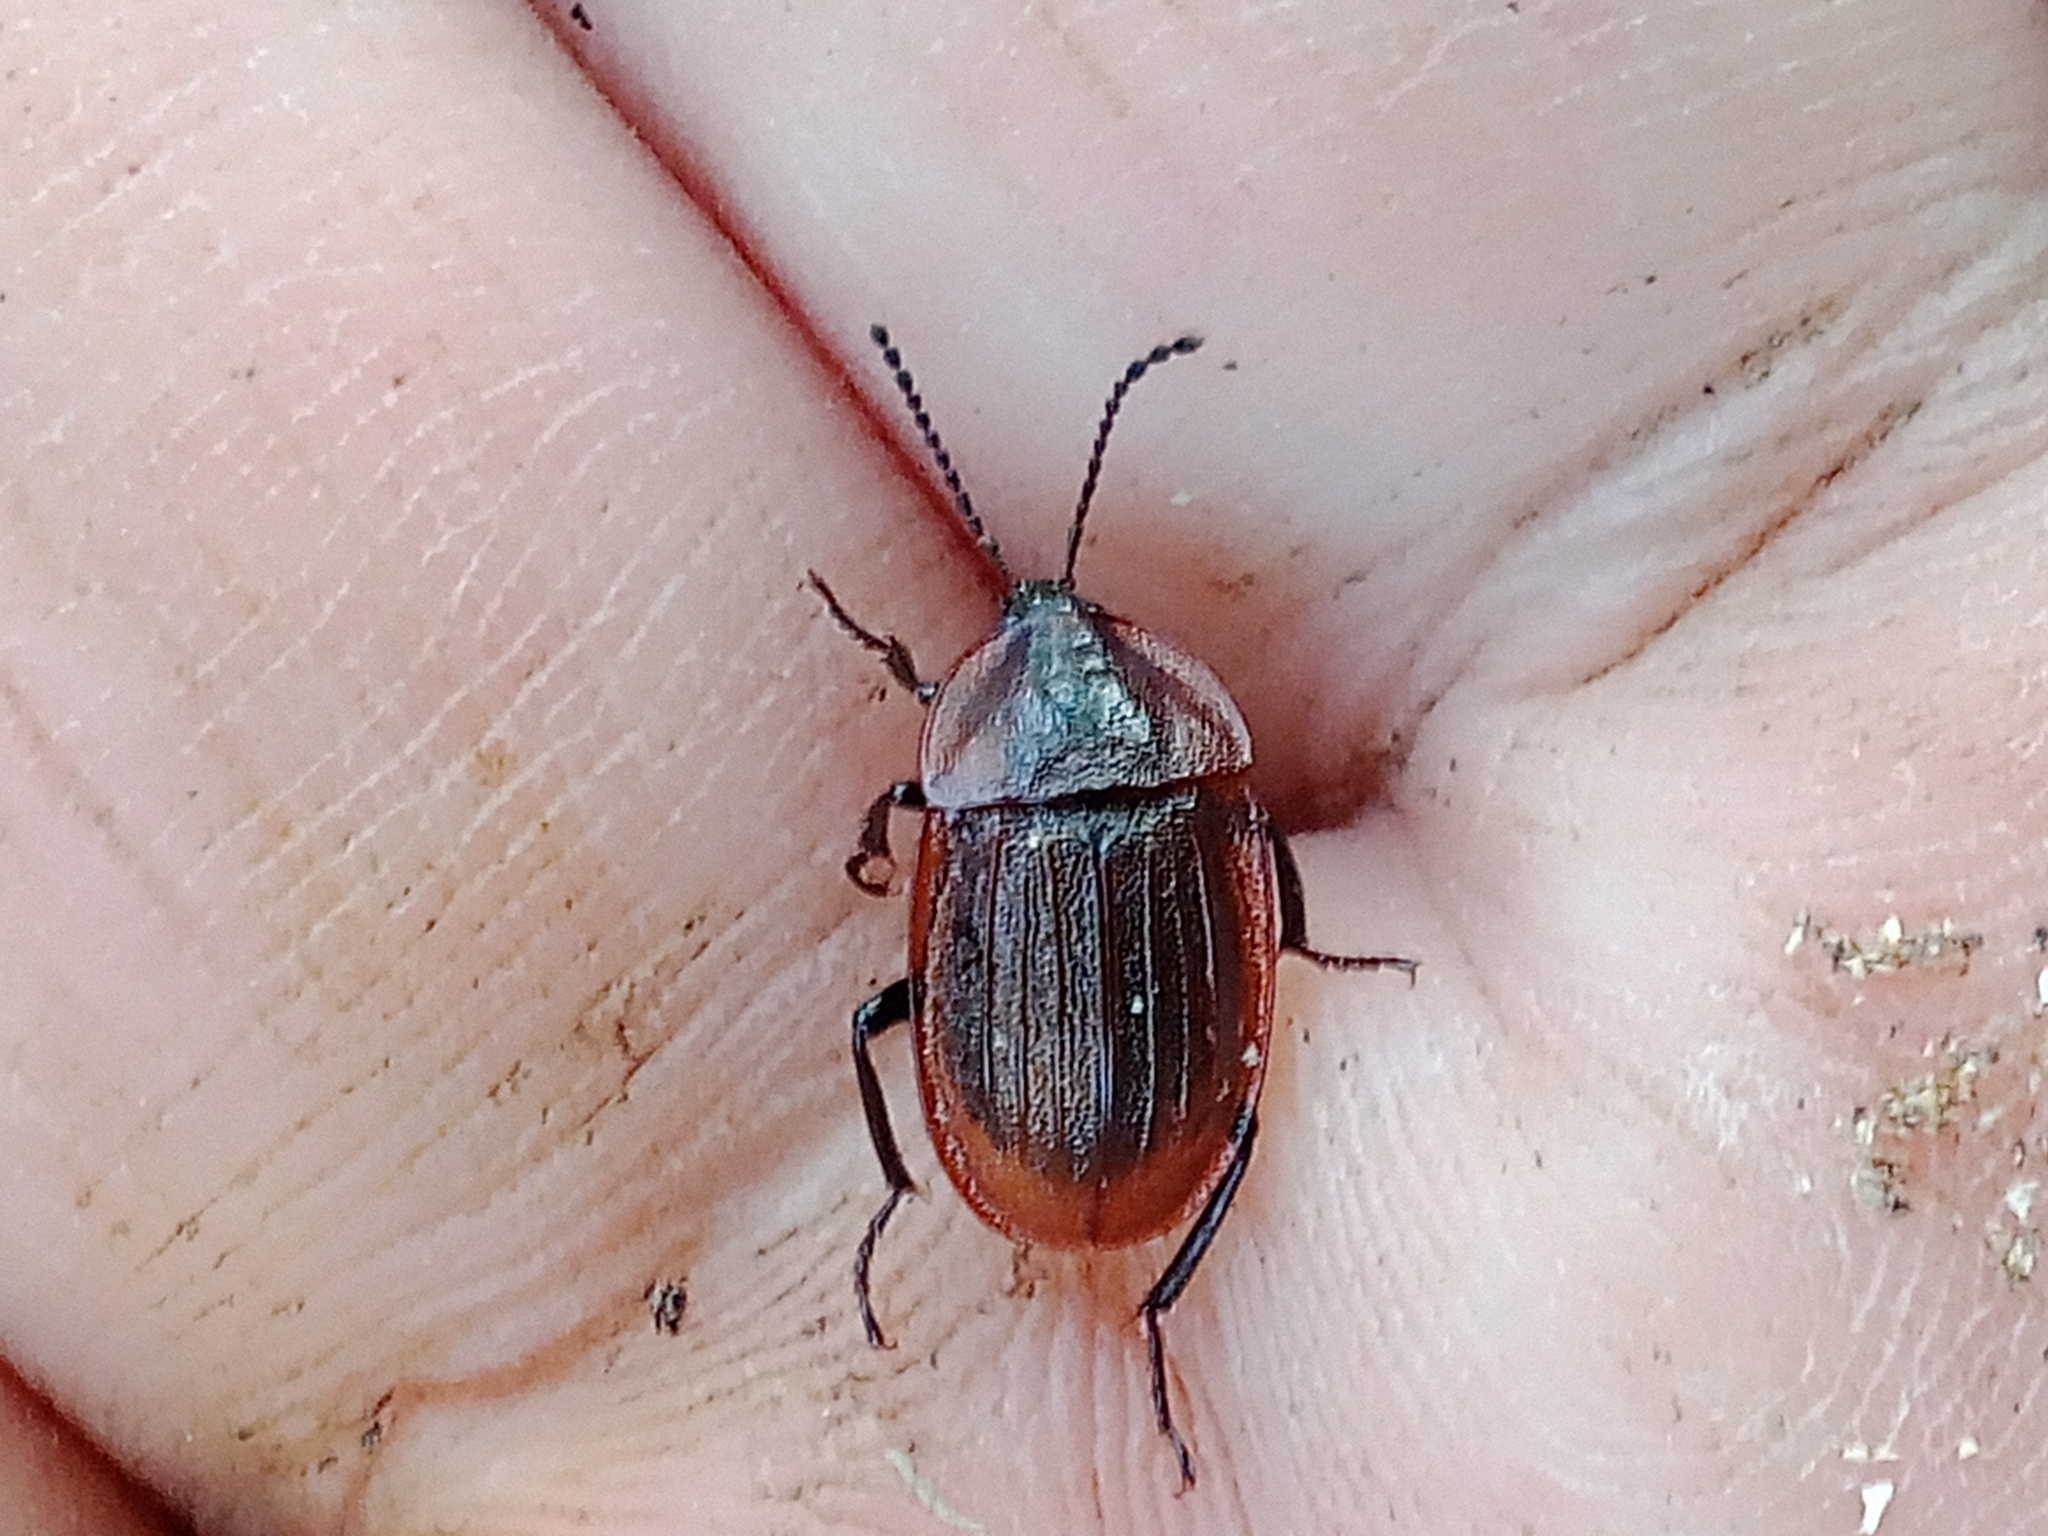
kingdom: Animalia
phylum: Arthropoda
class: Insecta
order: Coleoptera
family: Staphylinidae
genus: Silpha
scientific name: Silpha atrata
